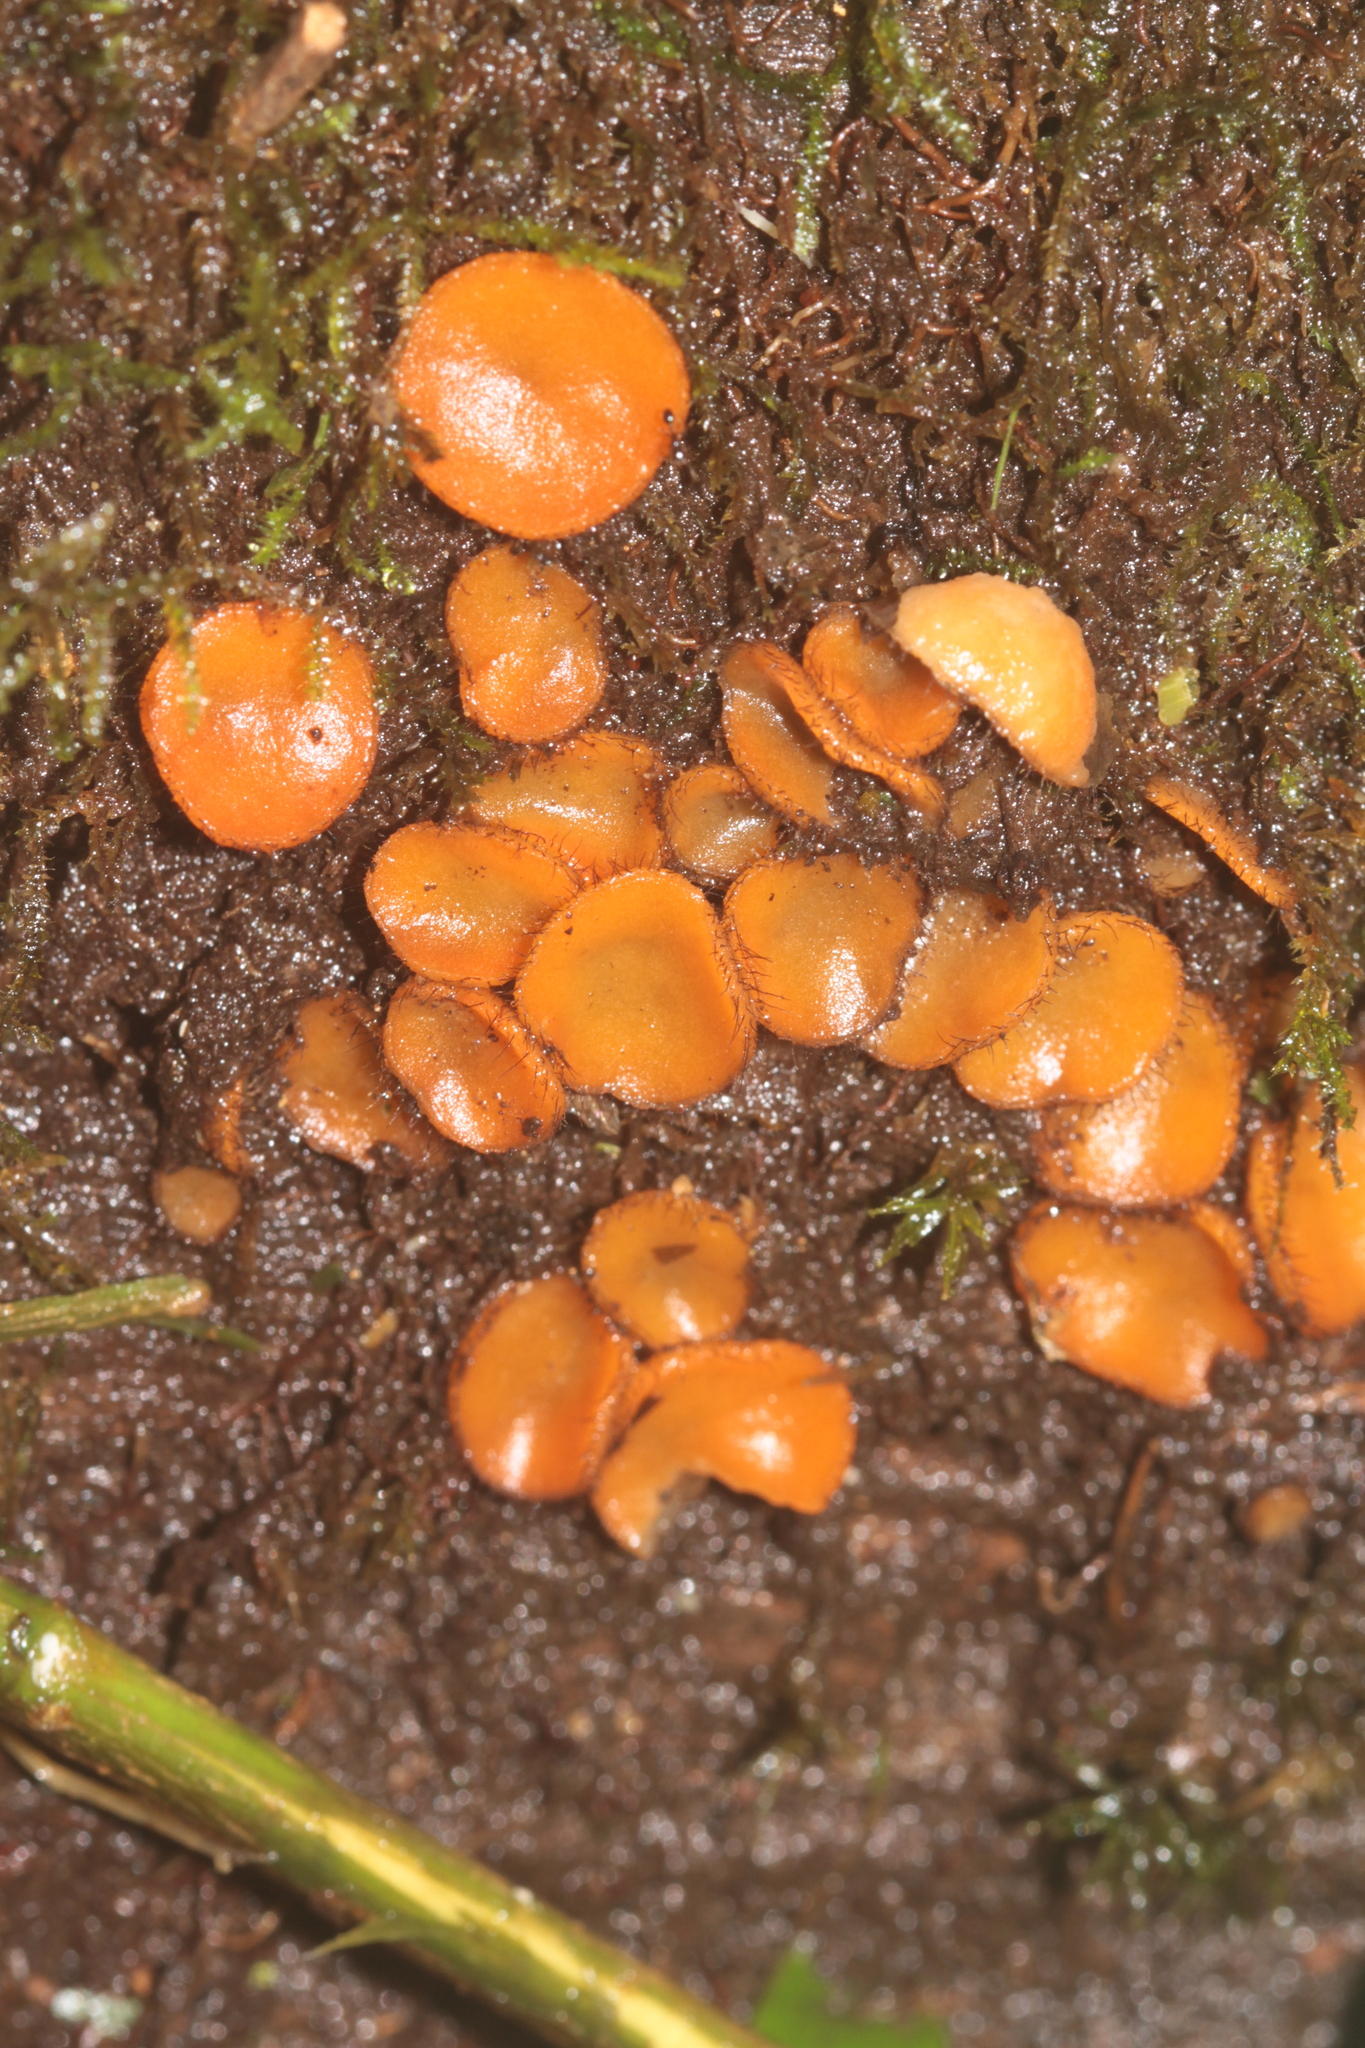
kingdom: Fungi
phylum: Ascomycota
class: Pezizomycetes
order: Pezizales
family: Pyronemataceae
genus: Scutellinia
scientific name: Scutellinia
